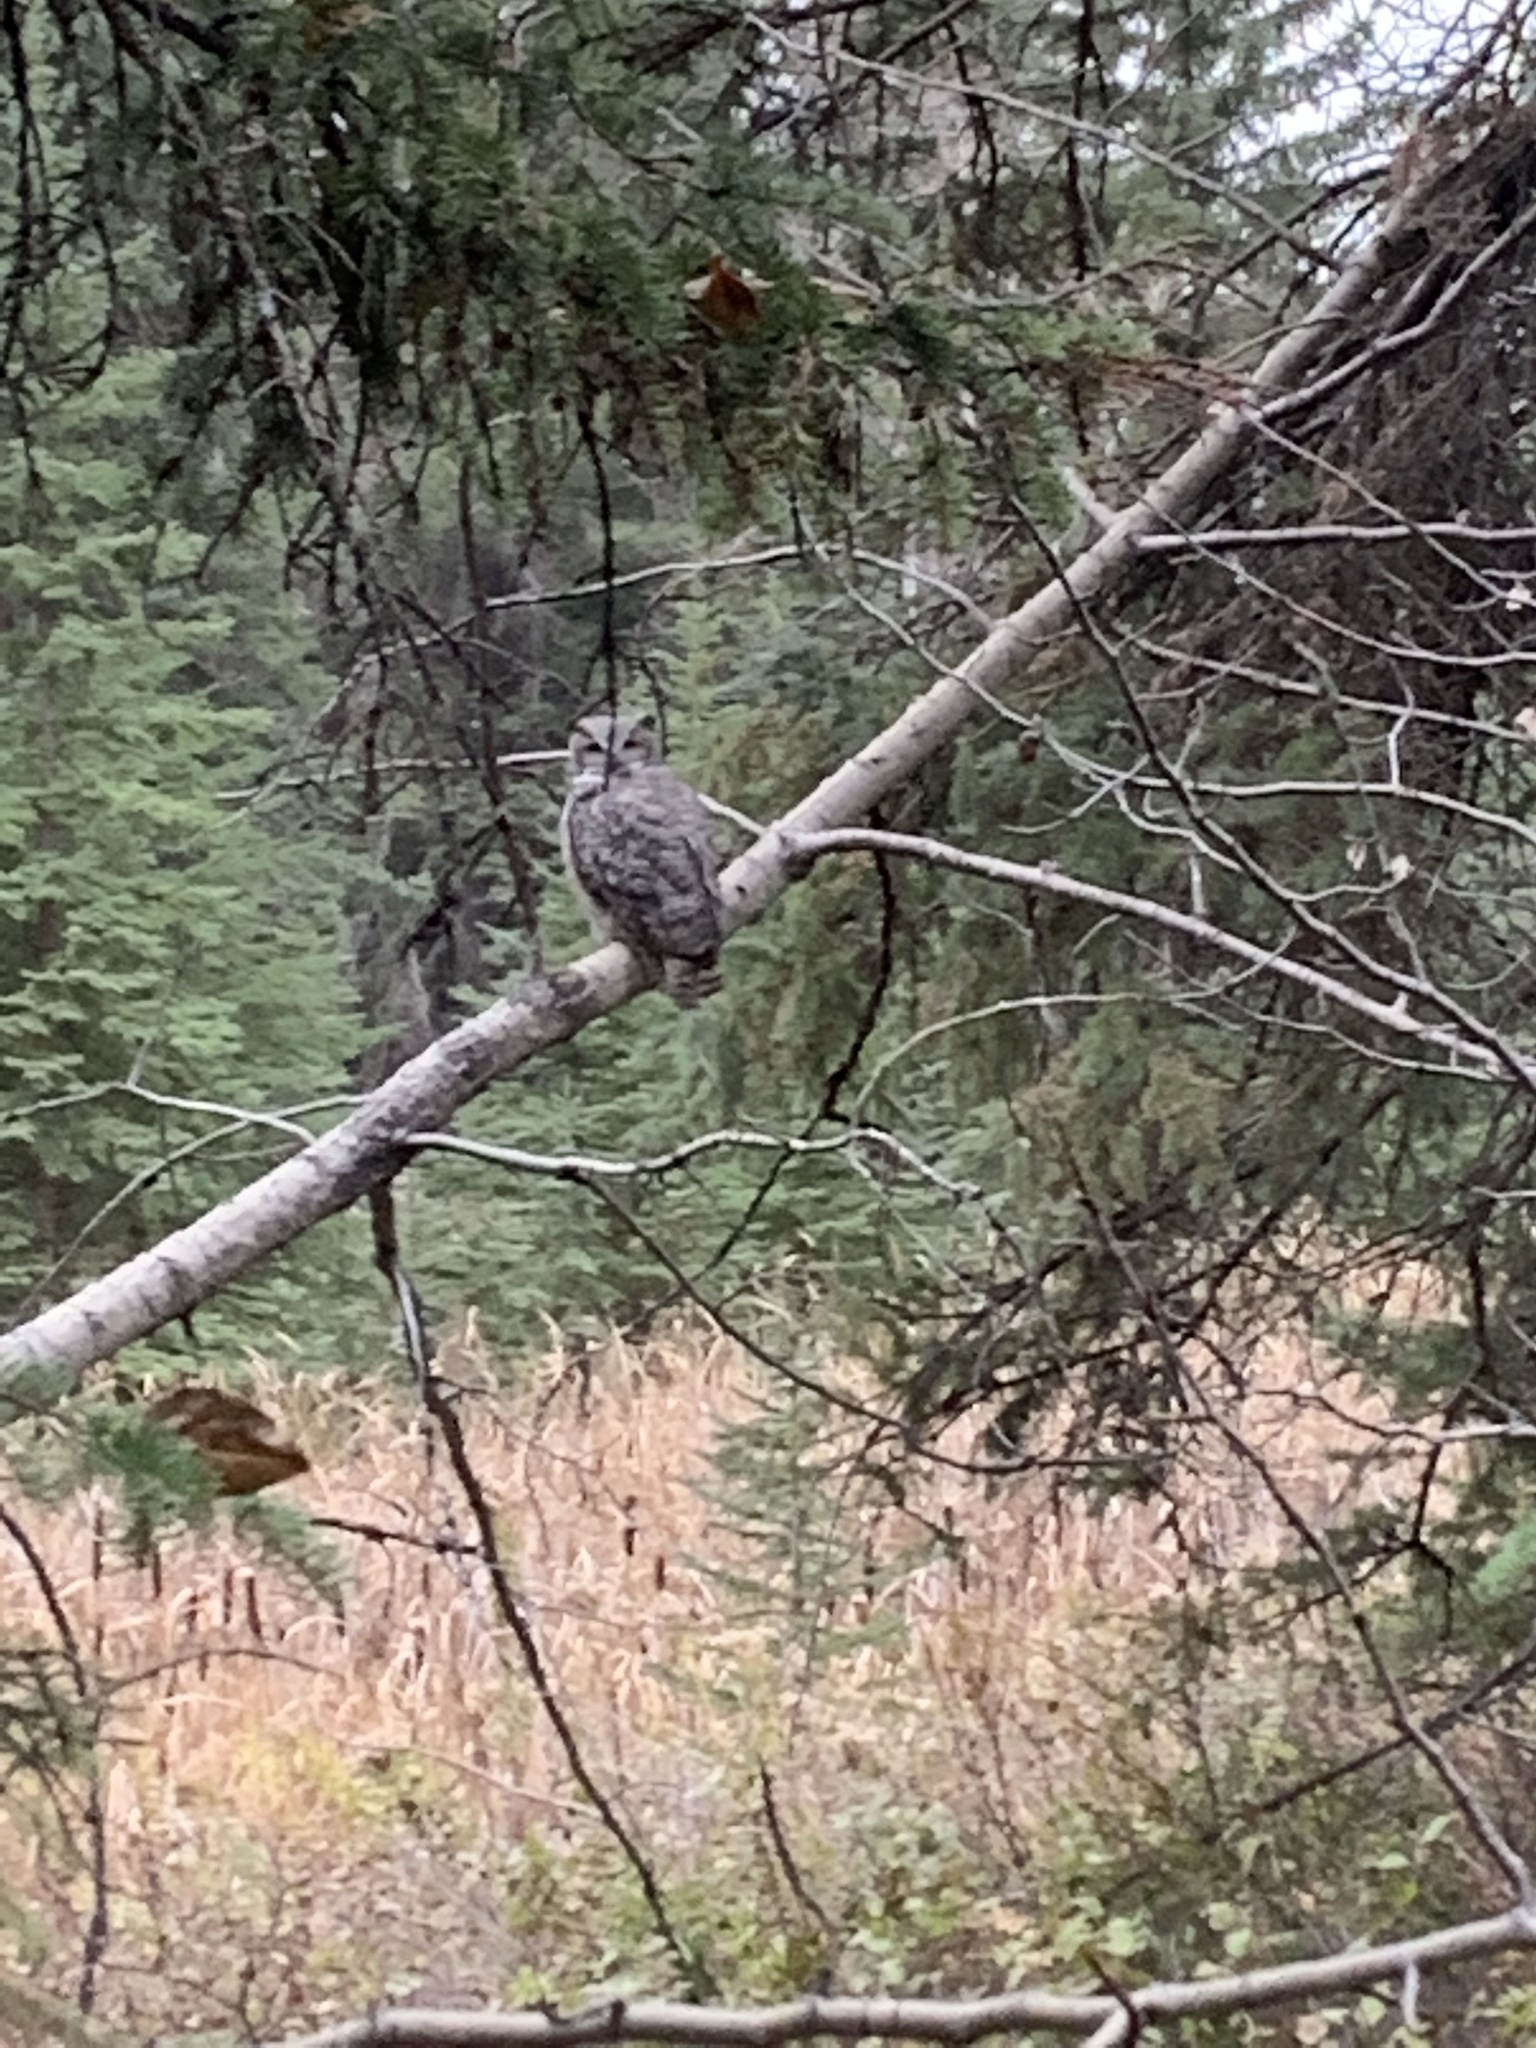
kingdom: Animalia
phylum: Chordata
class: Aves
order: Strigiformes
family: Strigidae
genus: Bubo
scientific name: Bubo virginianus
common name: Great horned owl
